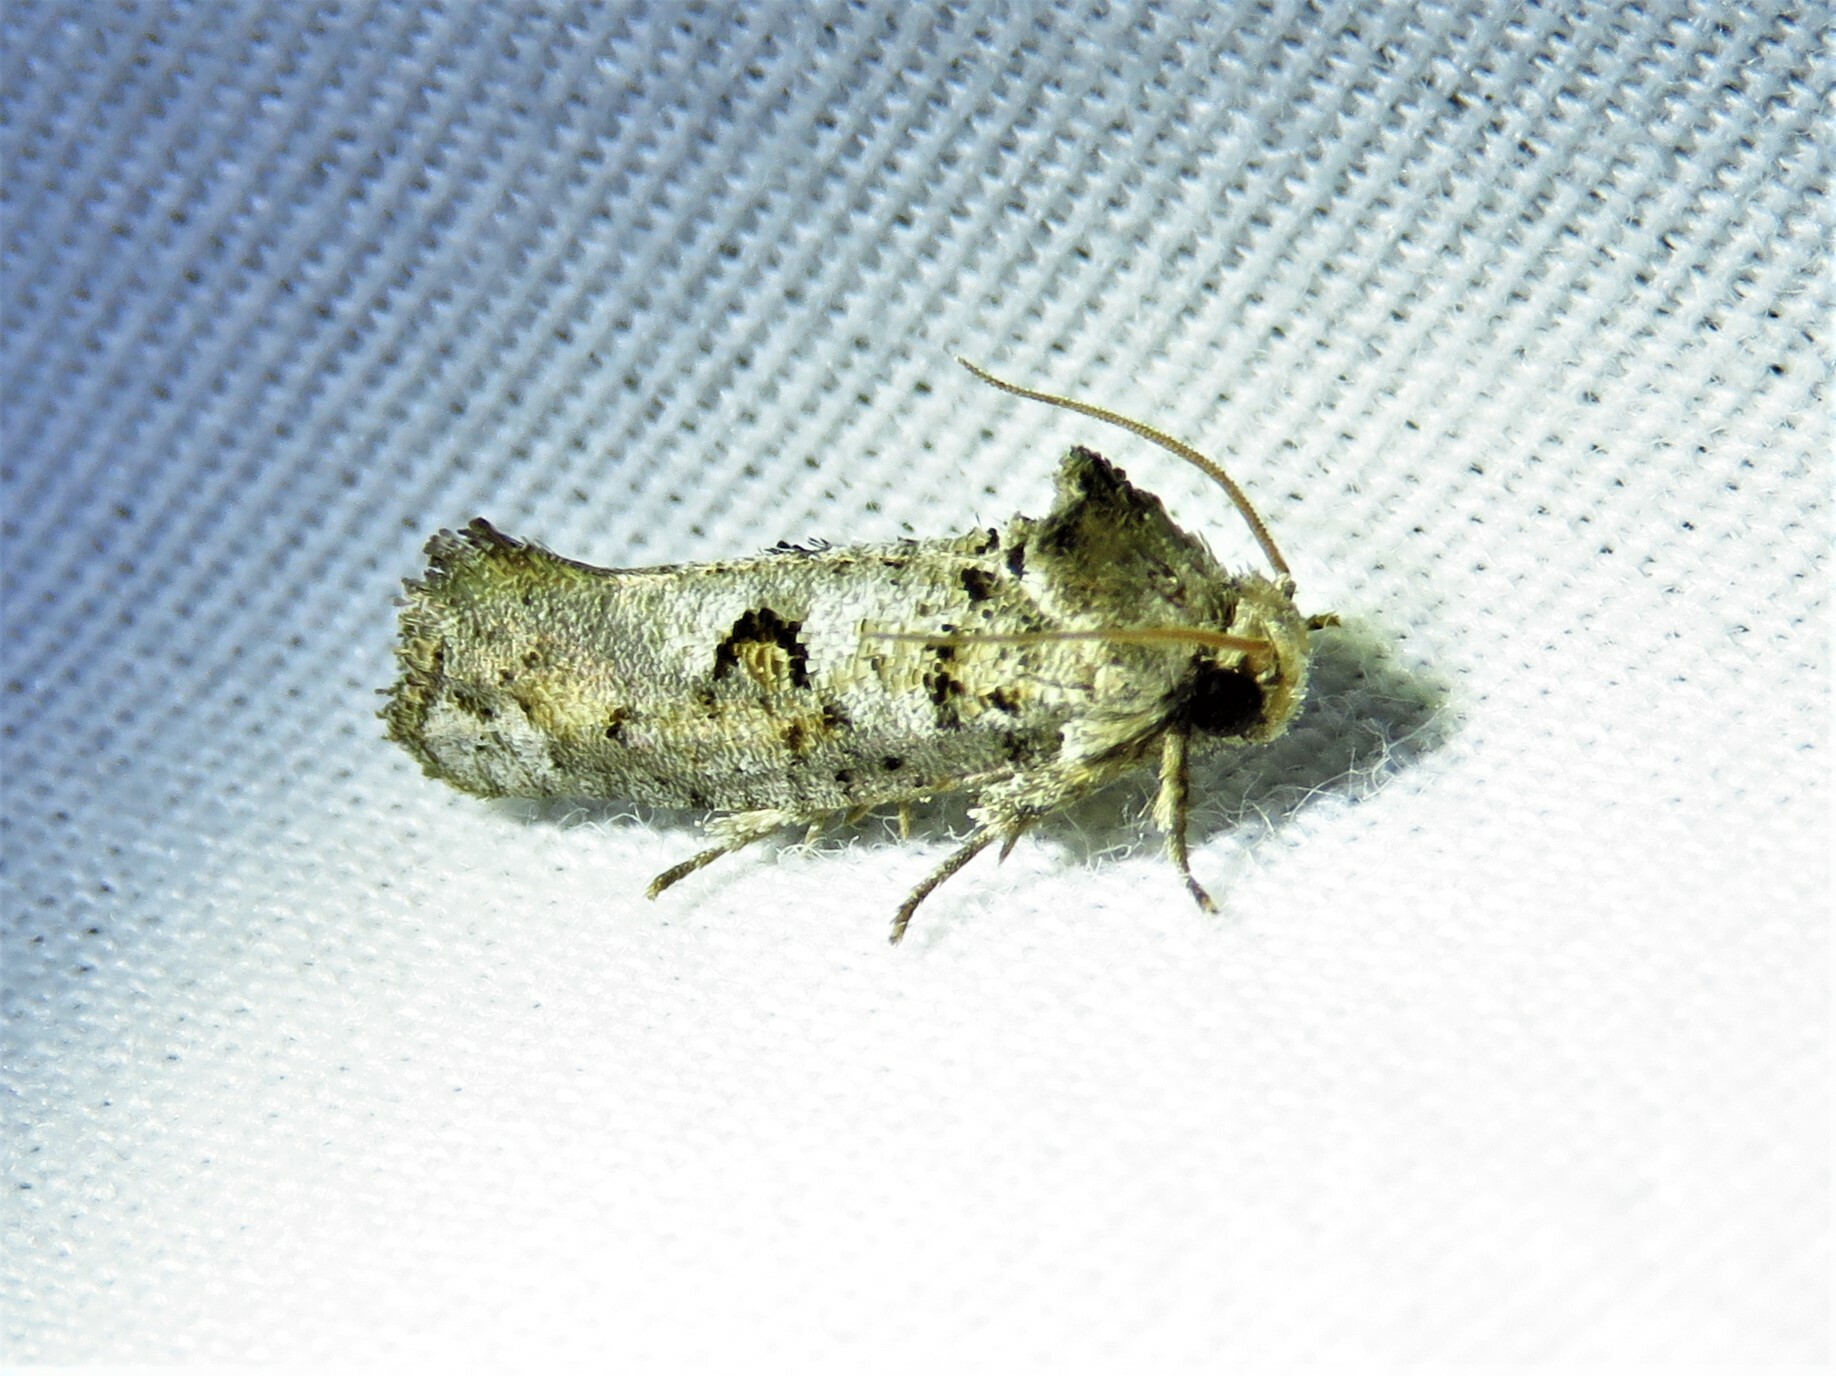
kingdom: Animalia
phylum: Arthropoda
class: Insecta
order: Lepidoptera
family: Tineidae
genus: Acrolophus
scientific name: Acrolophus piger
